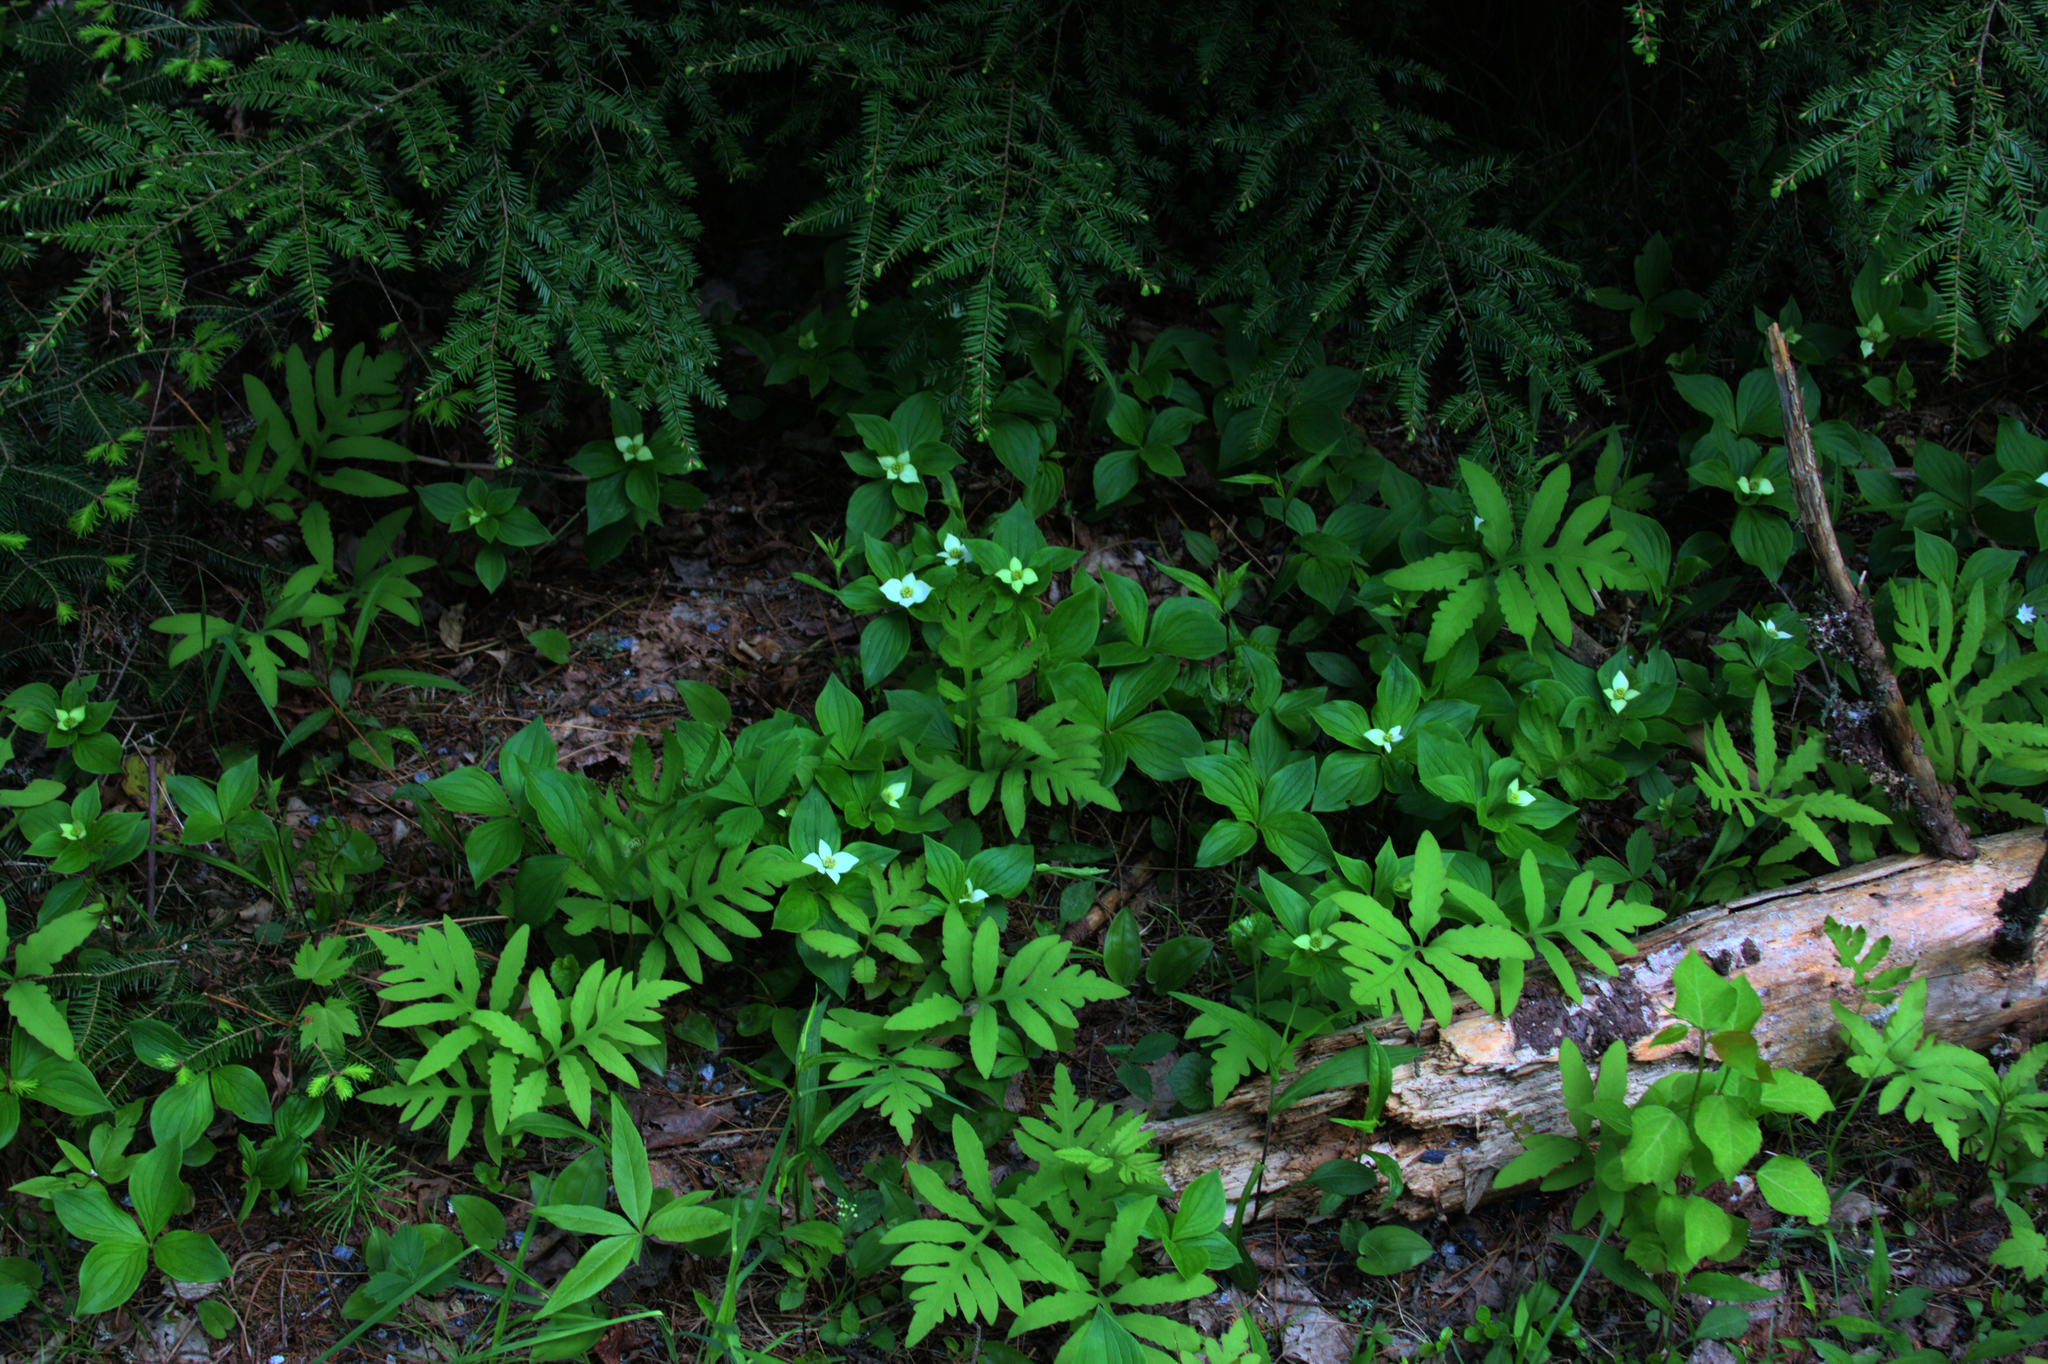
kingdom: Plantae
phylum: Tracheophyta
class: Pinopsida
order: Pinales
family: Pinaceae
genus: Tsuga
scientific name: Tsuga canadensis
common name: Eastern hemlock
